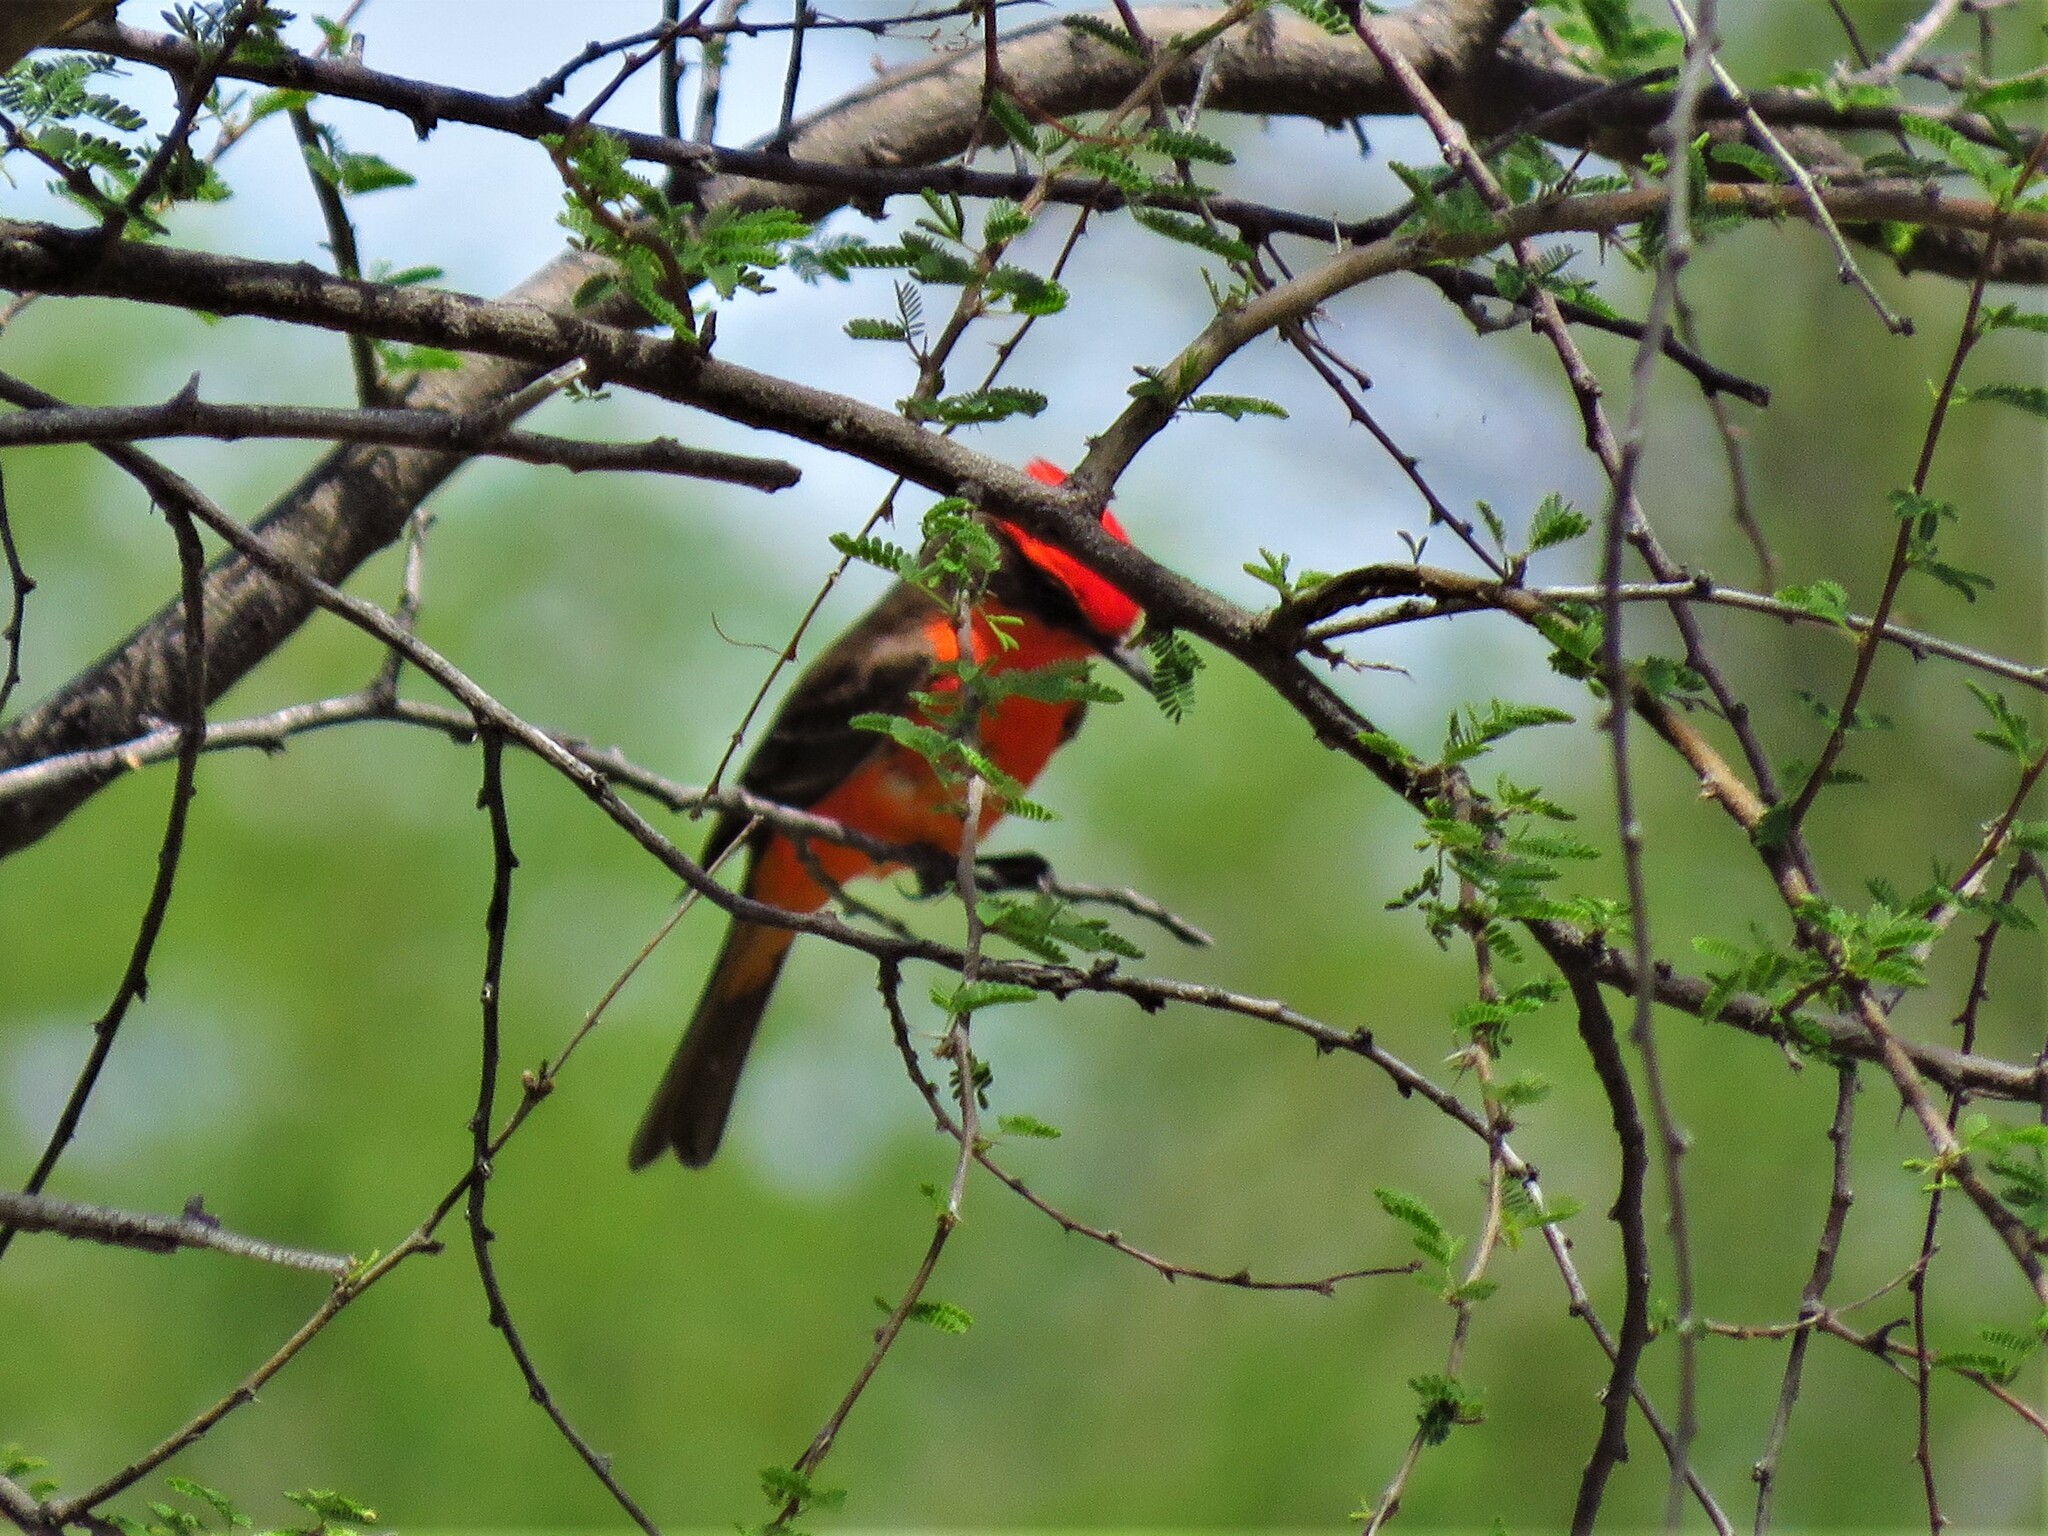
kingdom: Animalia
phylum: Chordata
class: Aves
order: Passeriformes
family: Tyrannidae
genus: Pyrocephalus
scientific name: Pyrocephalus rubinus
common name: Vermilion flycatcher
